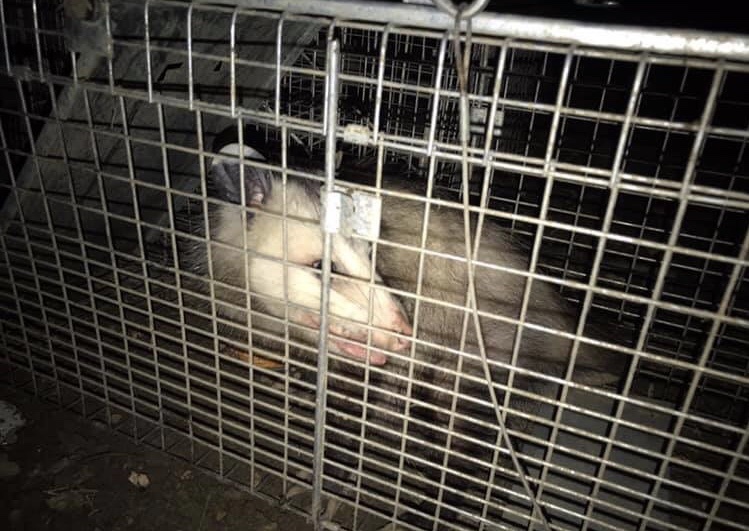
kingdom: Animalia
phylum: Chordata
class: Mammalia
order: Didelphimorphia
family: Didelphidae
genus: Didelphis
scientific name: Didelphis virginiana
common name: Virginia opossum
